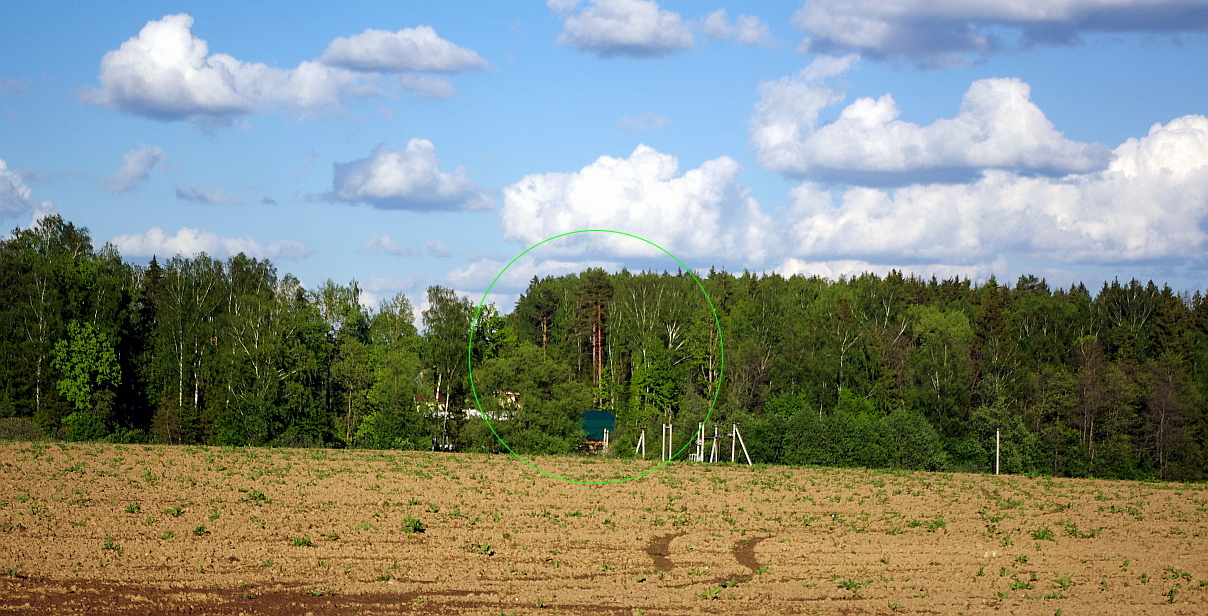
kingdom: Plantae
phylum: Tracheophyta
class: Pinopsida
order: Pinales
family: Pinaceae
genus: Pinus
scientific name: Pinus sylvestris
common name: Scots pine
